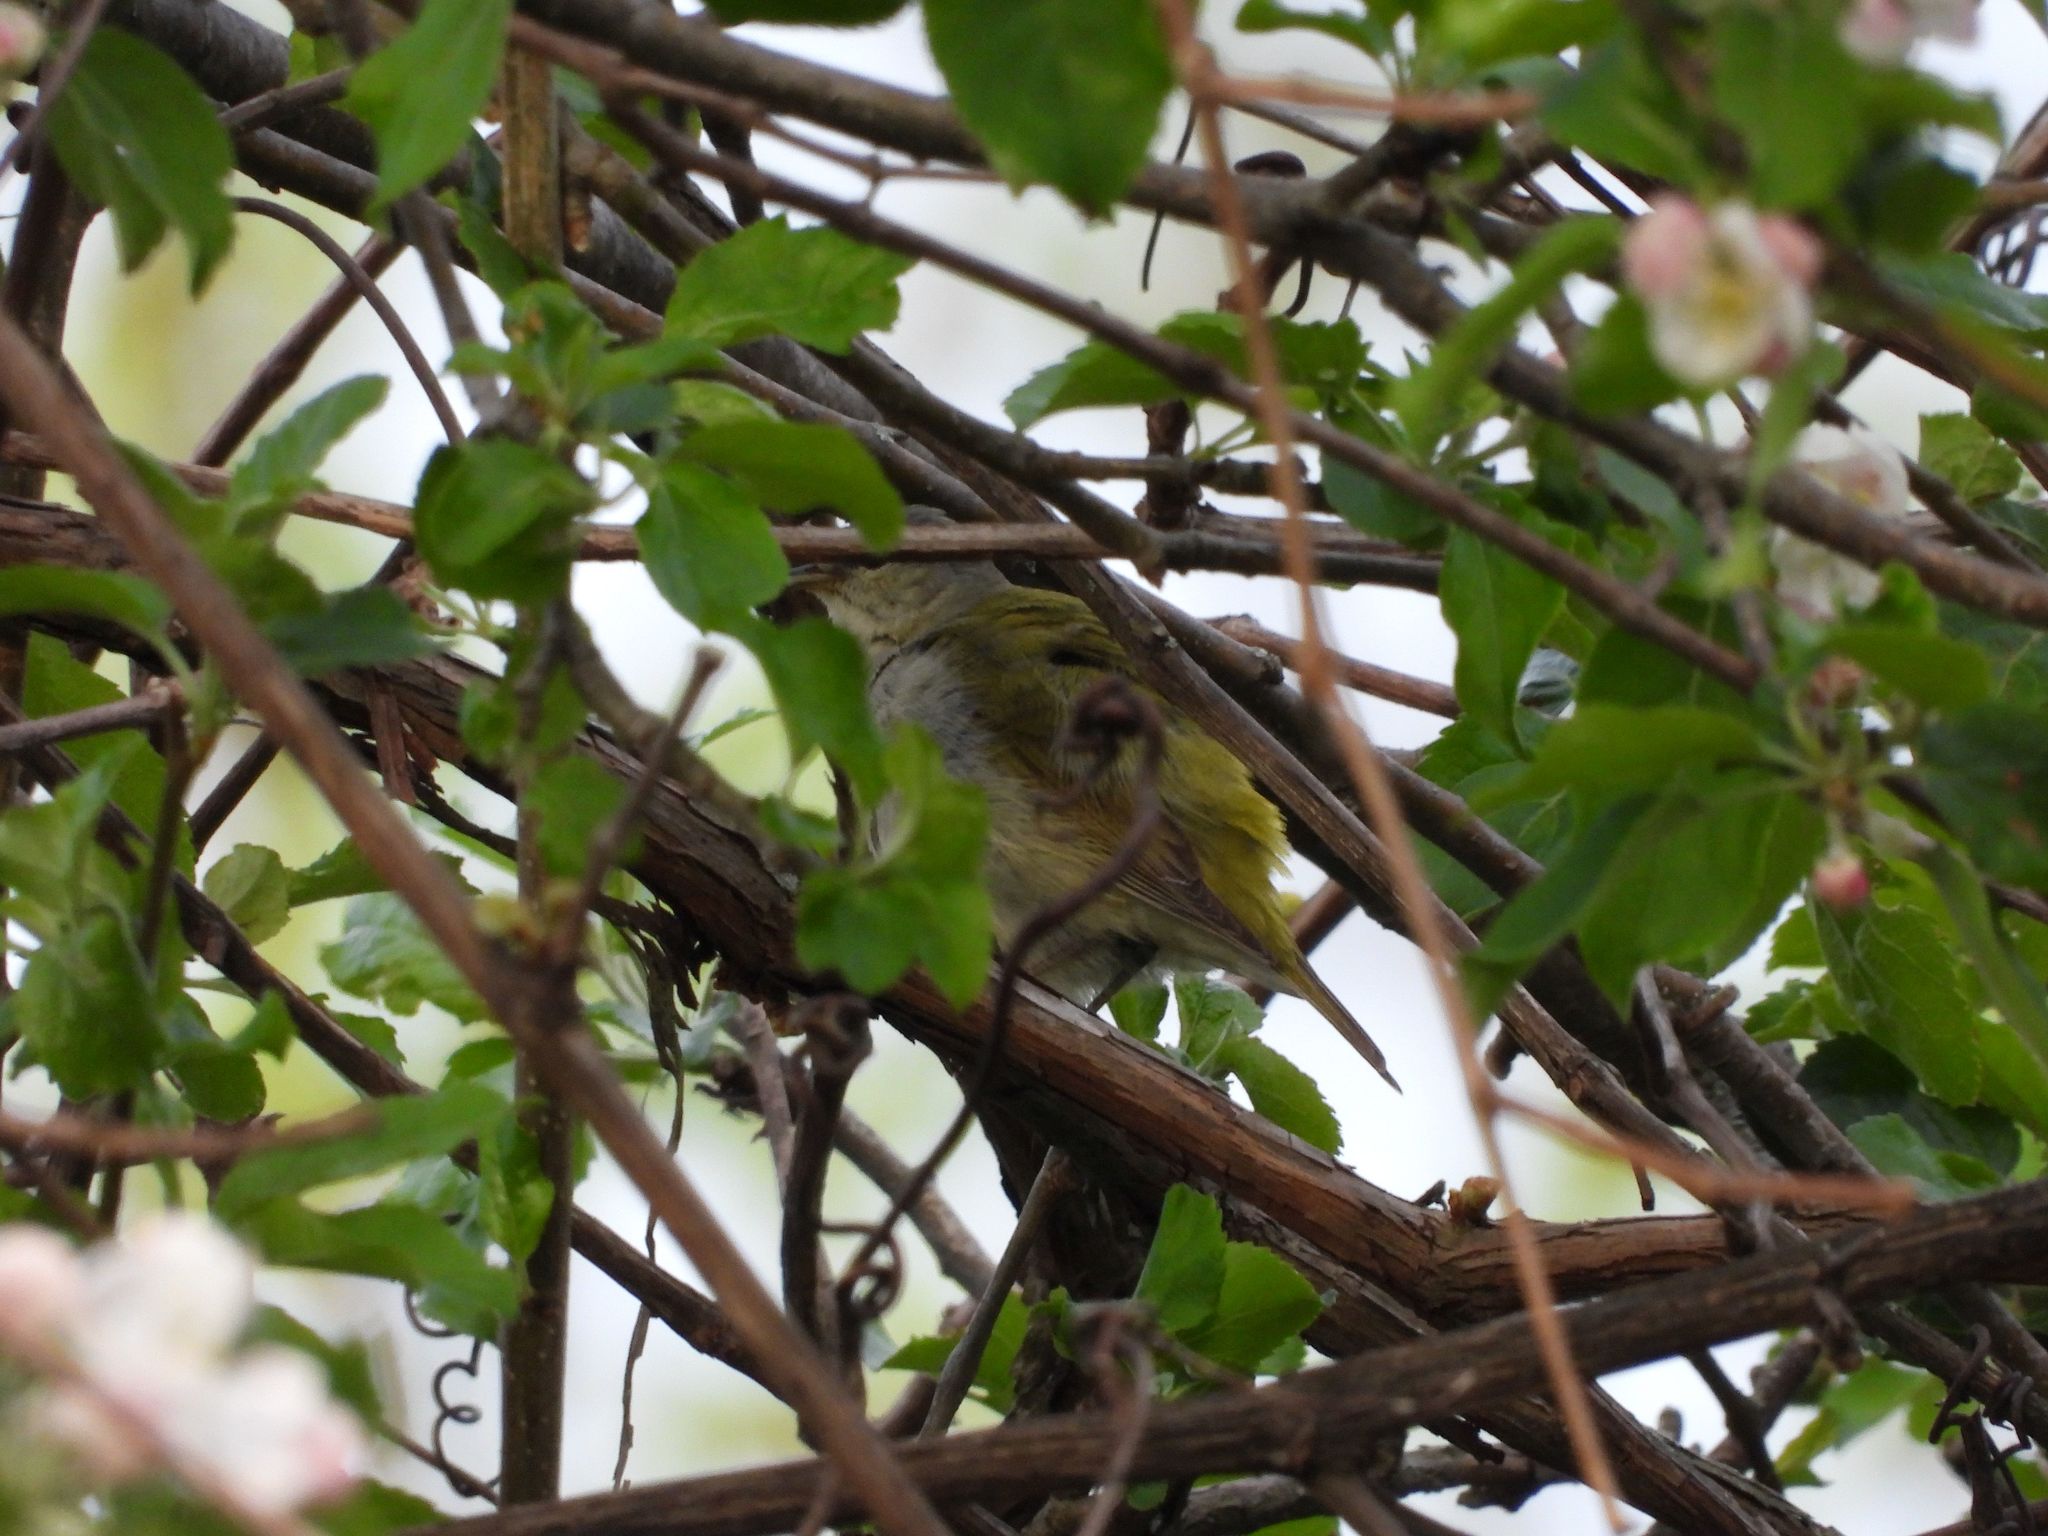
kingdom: Animalia
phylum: Chordata
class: Aves
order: Passeriformes
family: Parulidae
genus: Leiothlypis
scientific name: Leiothlypis peregrina
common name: Tennessee warbler
